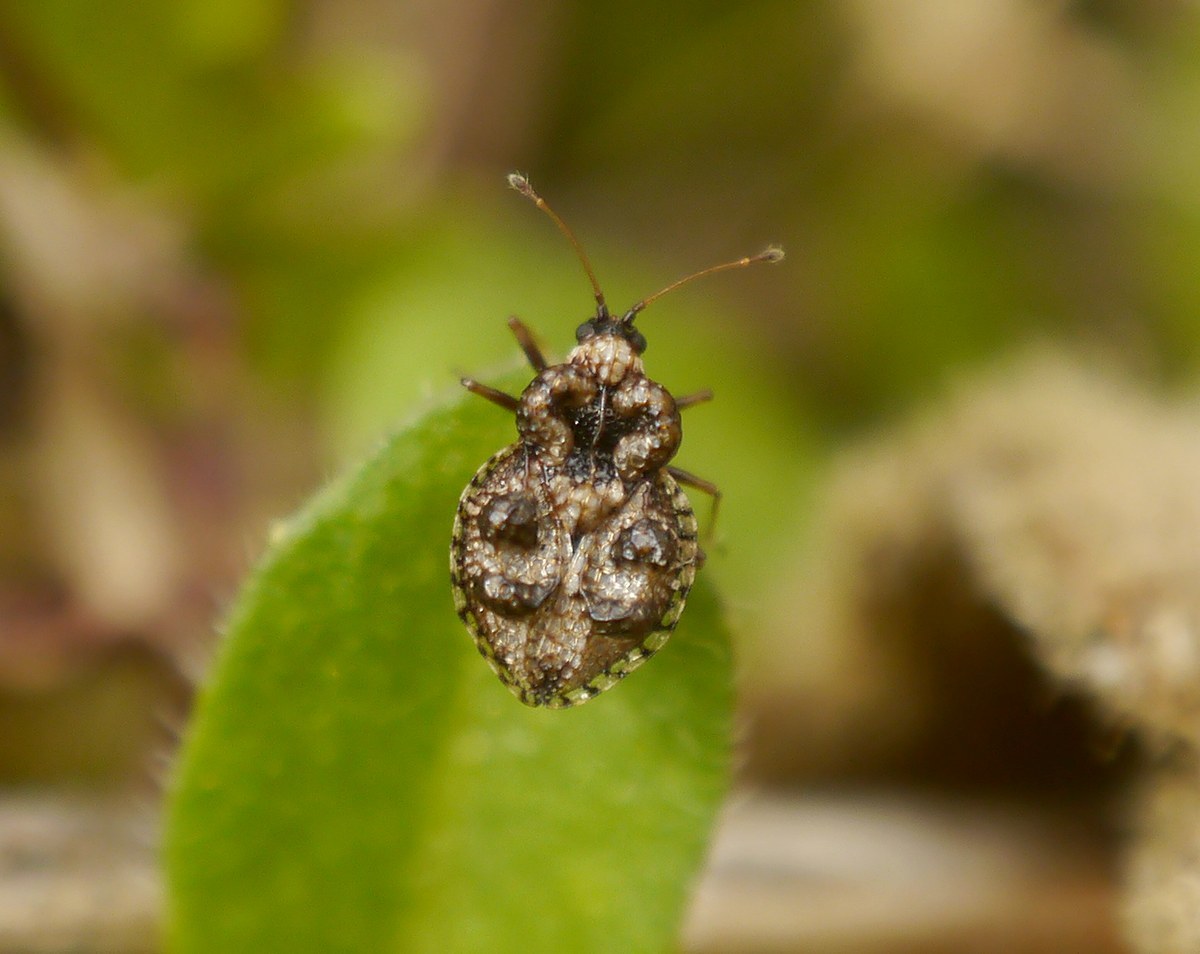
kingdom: Animalia
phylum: Arthropoda
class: Insecta
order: Hemiptera
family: Tingidae
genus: Dictyla
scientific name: Dictyla rotundata
